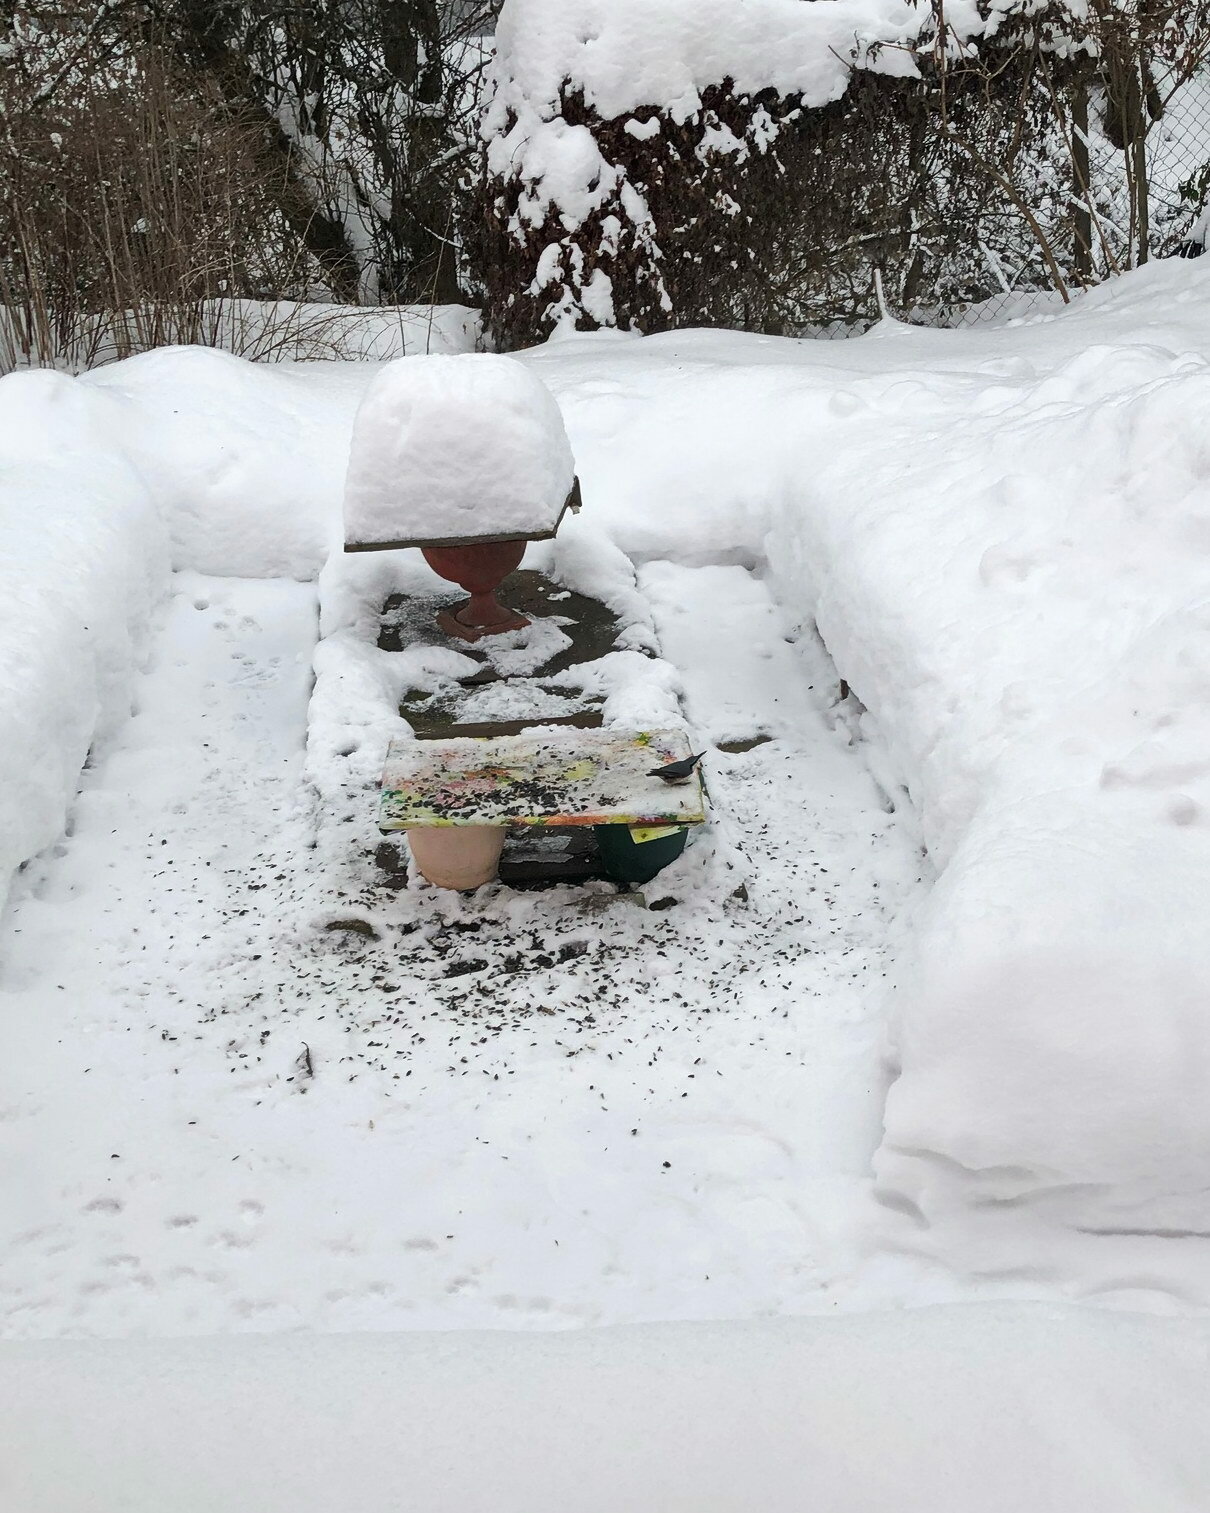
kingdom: Animalia
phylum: Chordata
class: Aves
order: Passeriformes
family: Sittidae
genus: Sitta
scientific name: Sitta europaea
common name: Eurasian nuthatch
